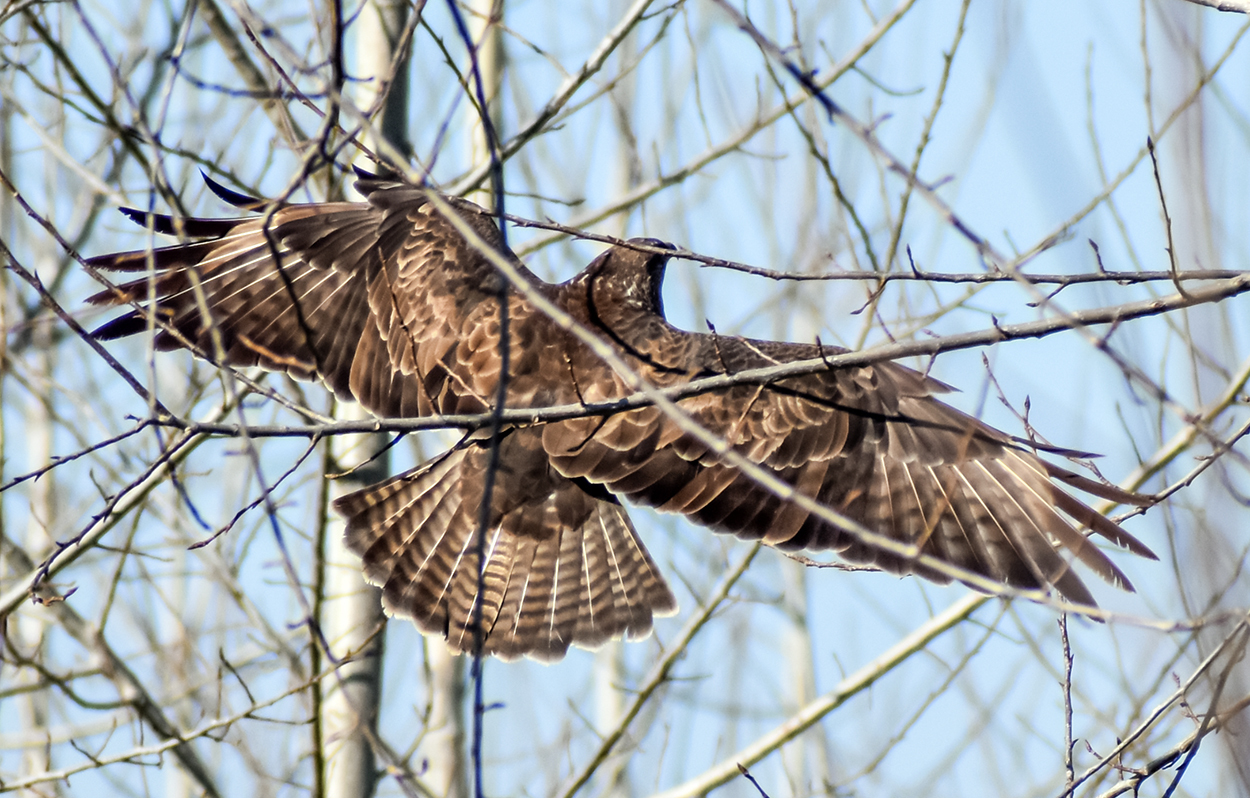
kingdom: Animalia
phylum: Chordata
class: Aves
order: Accipitriformes
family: Accipitridae
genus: Buteo
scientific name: Buteo buteo
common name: Common buzzard
